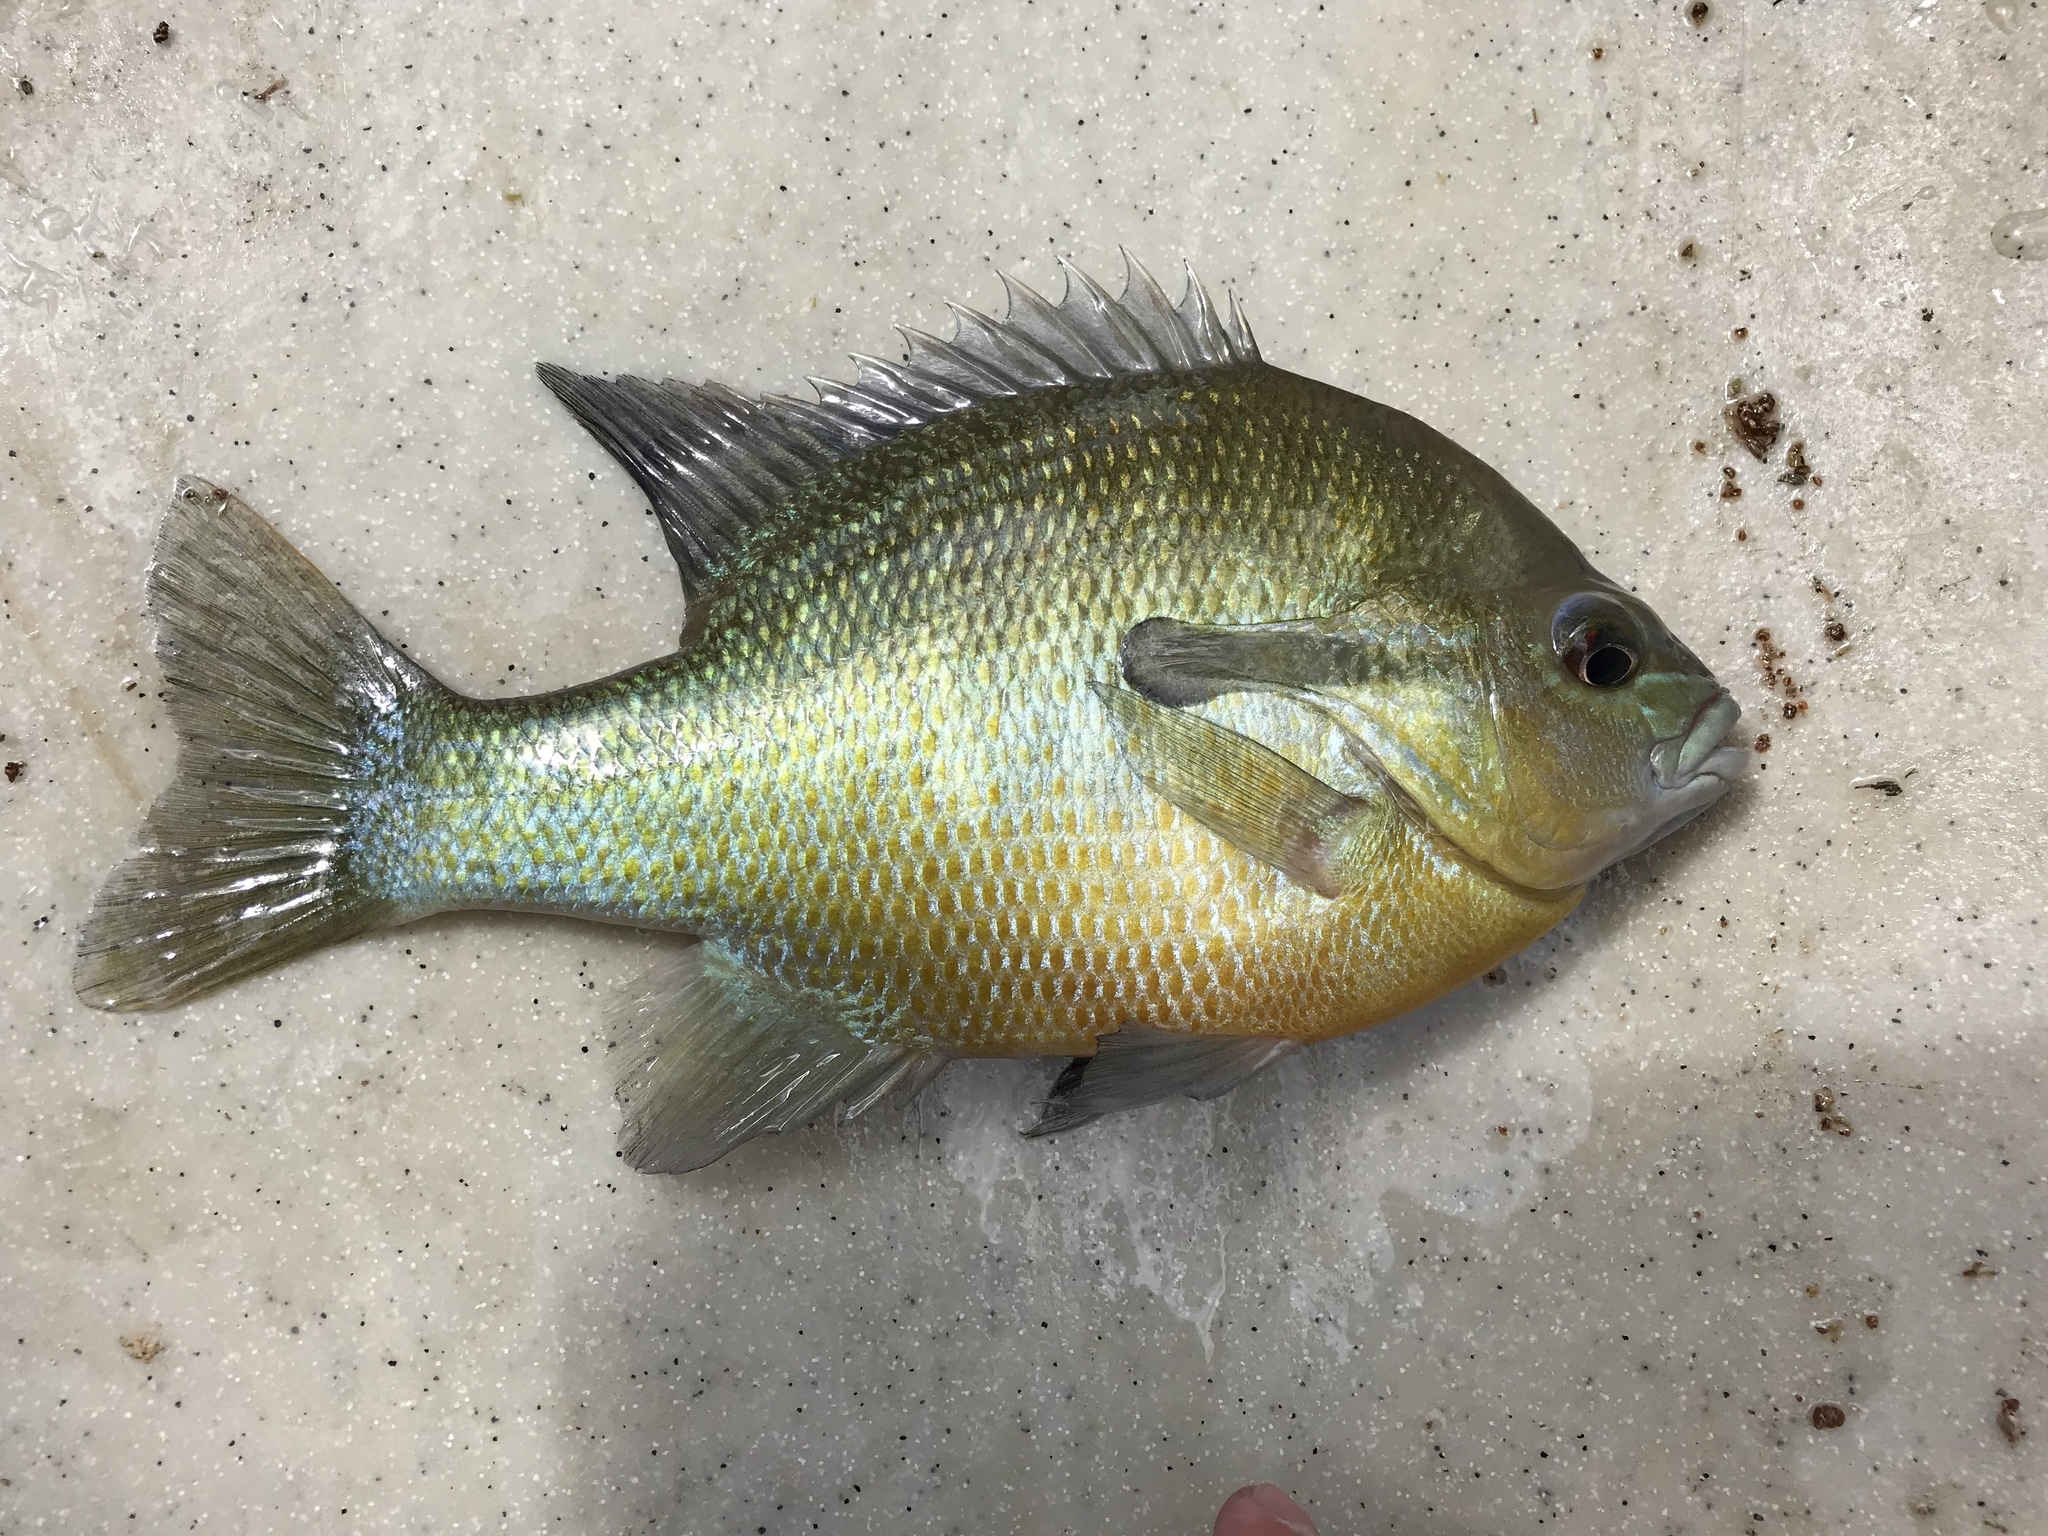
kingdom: Animalia
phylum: Chordata
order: Perciformes
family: Centrarchidae
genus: Lepomis
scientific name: Lepomis auritus
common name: Redbreast sunfish
